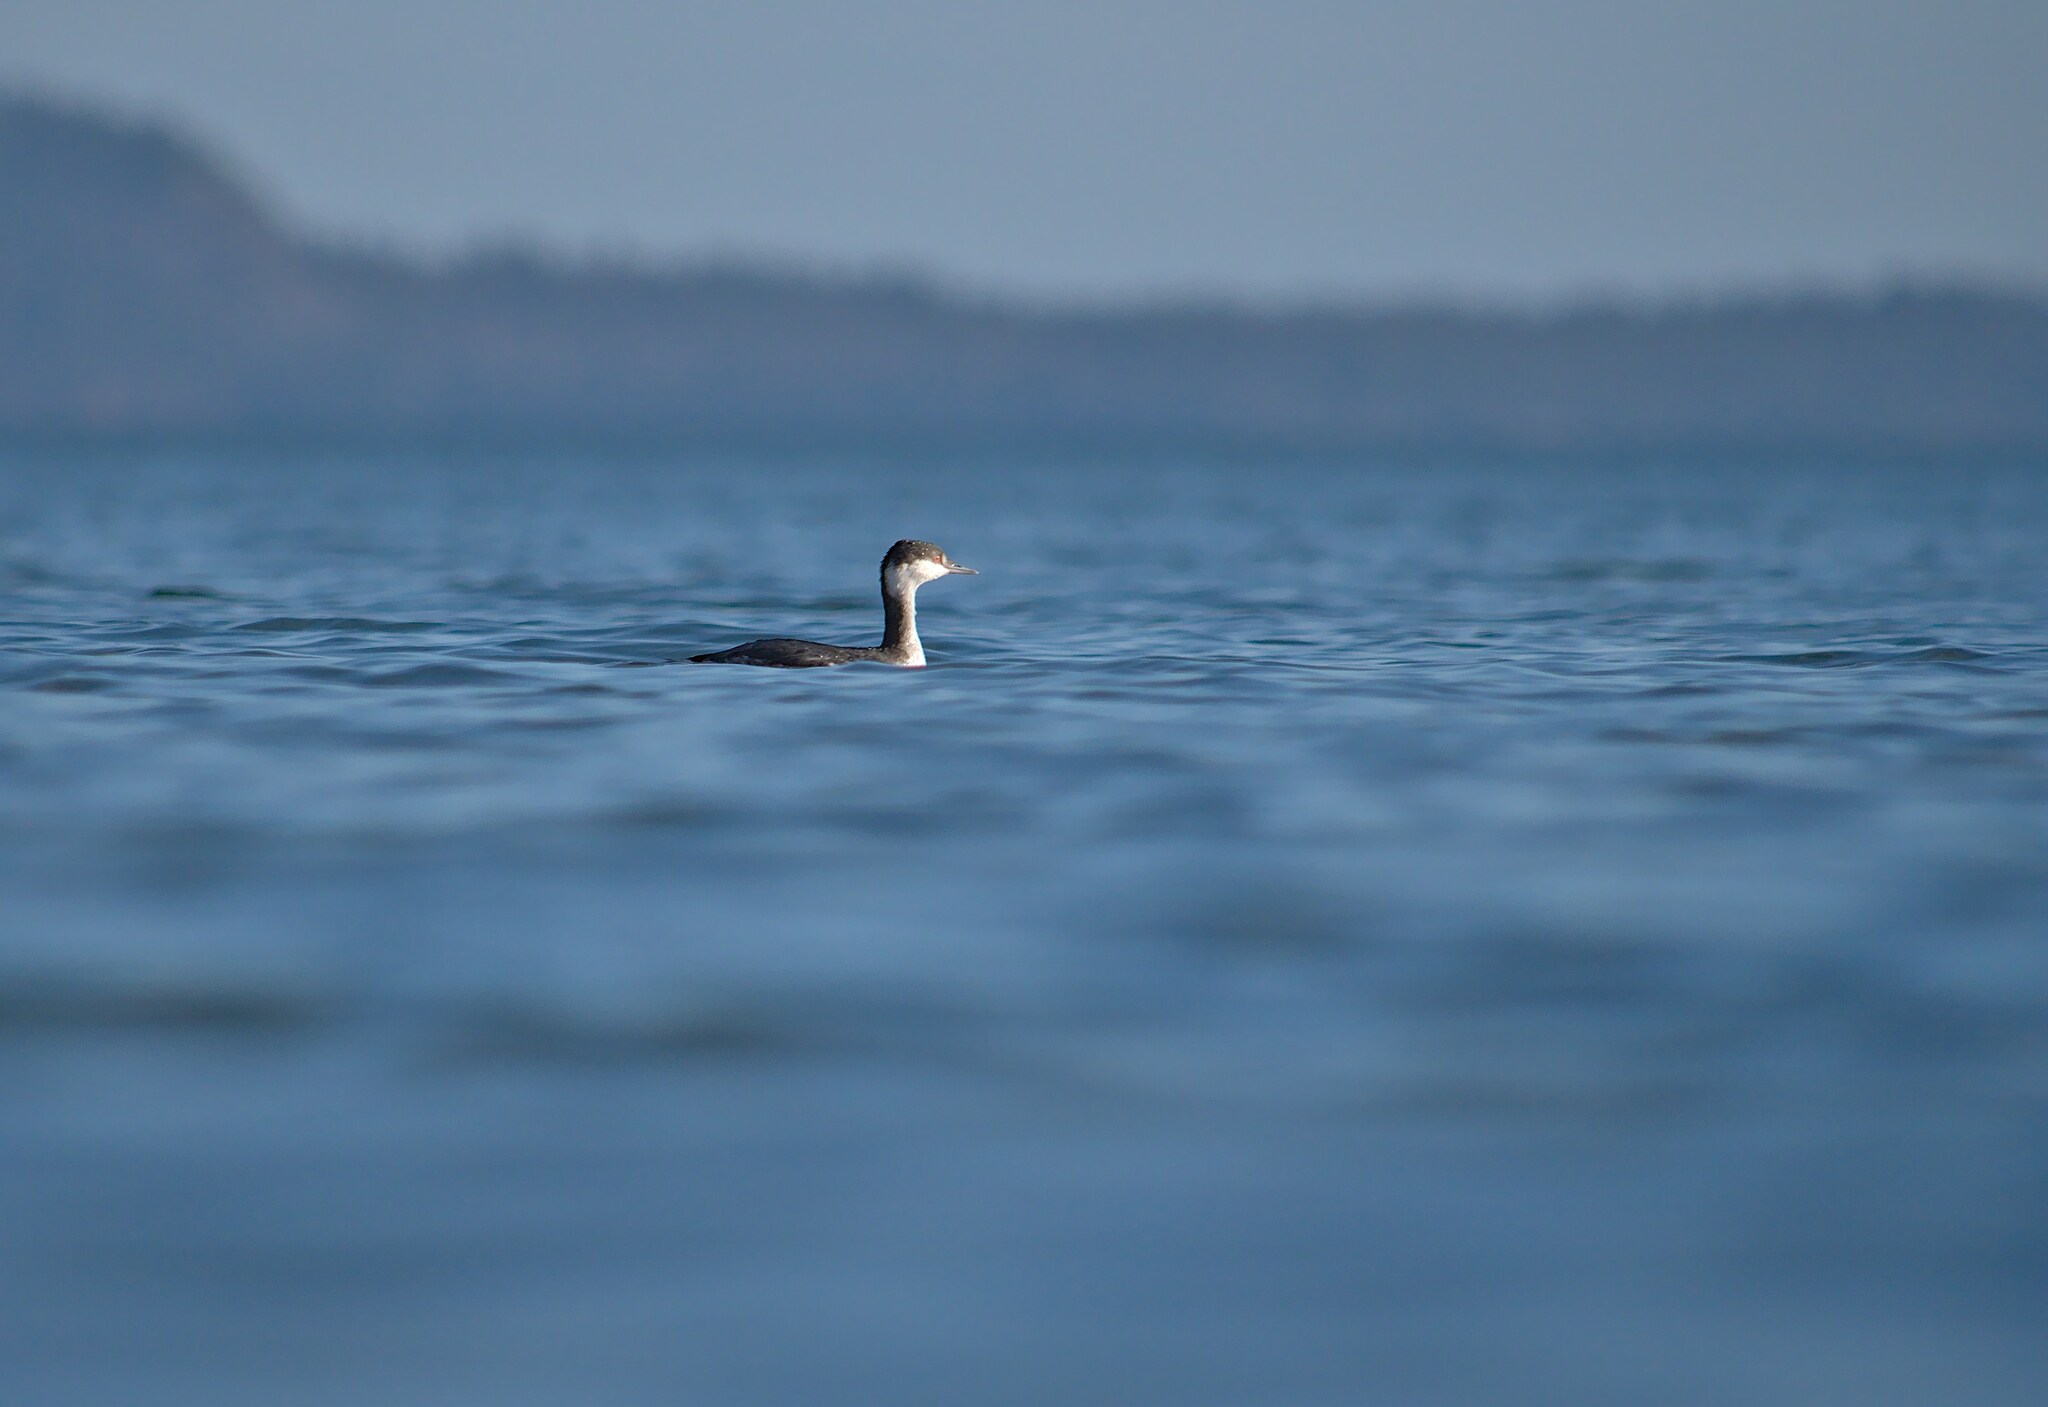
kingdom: Animalia
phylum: Chordata
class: Aves
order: Podicipediformes
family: Podicipedidae
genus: Podiceps
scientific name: Podiceps auritus
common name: Horned grebe
